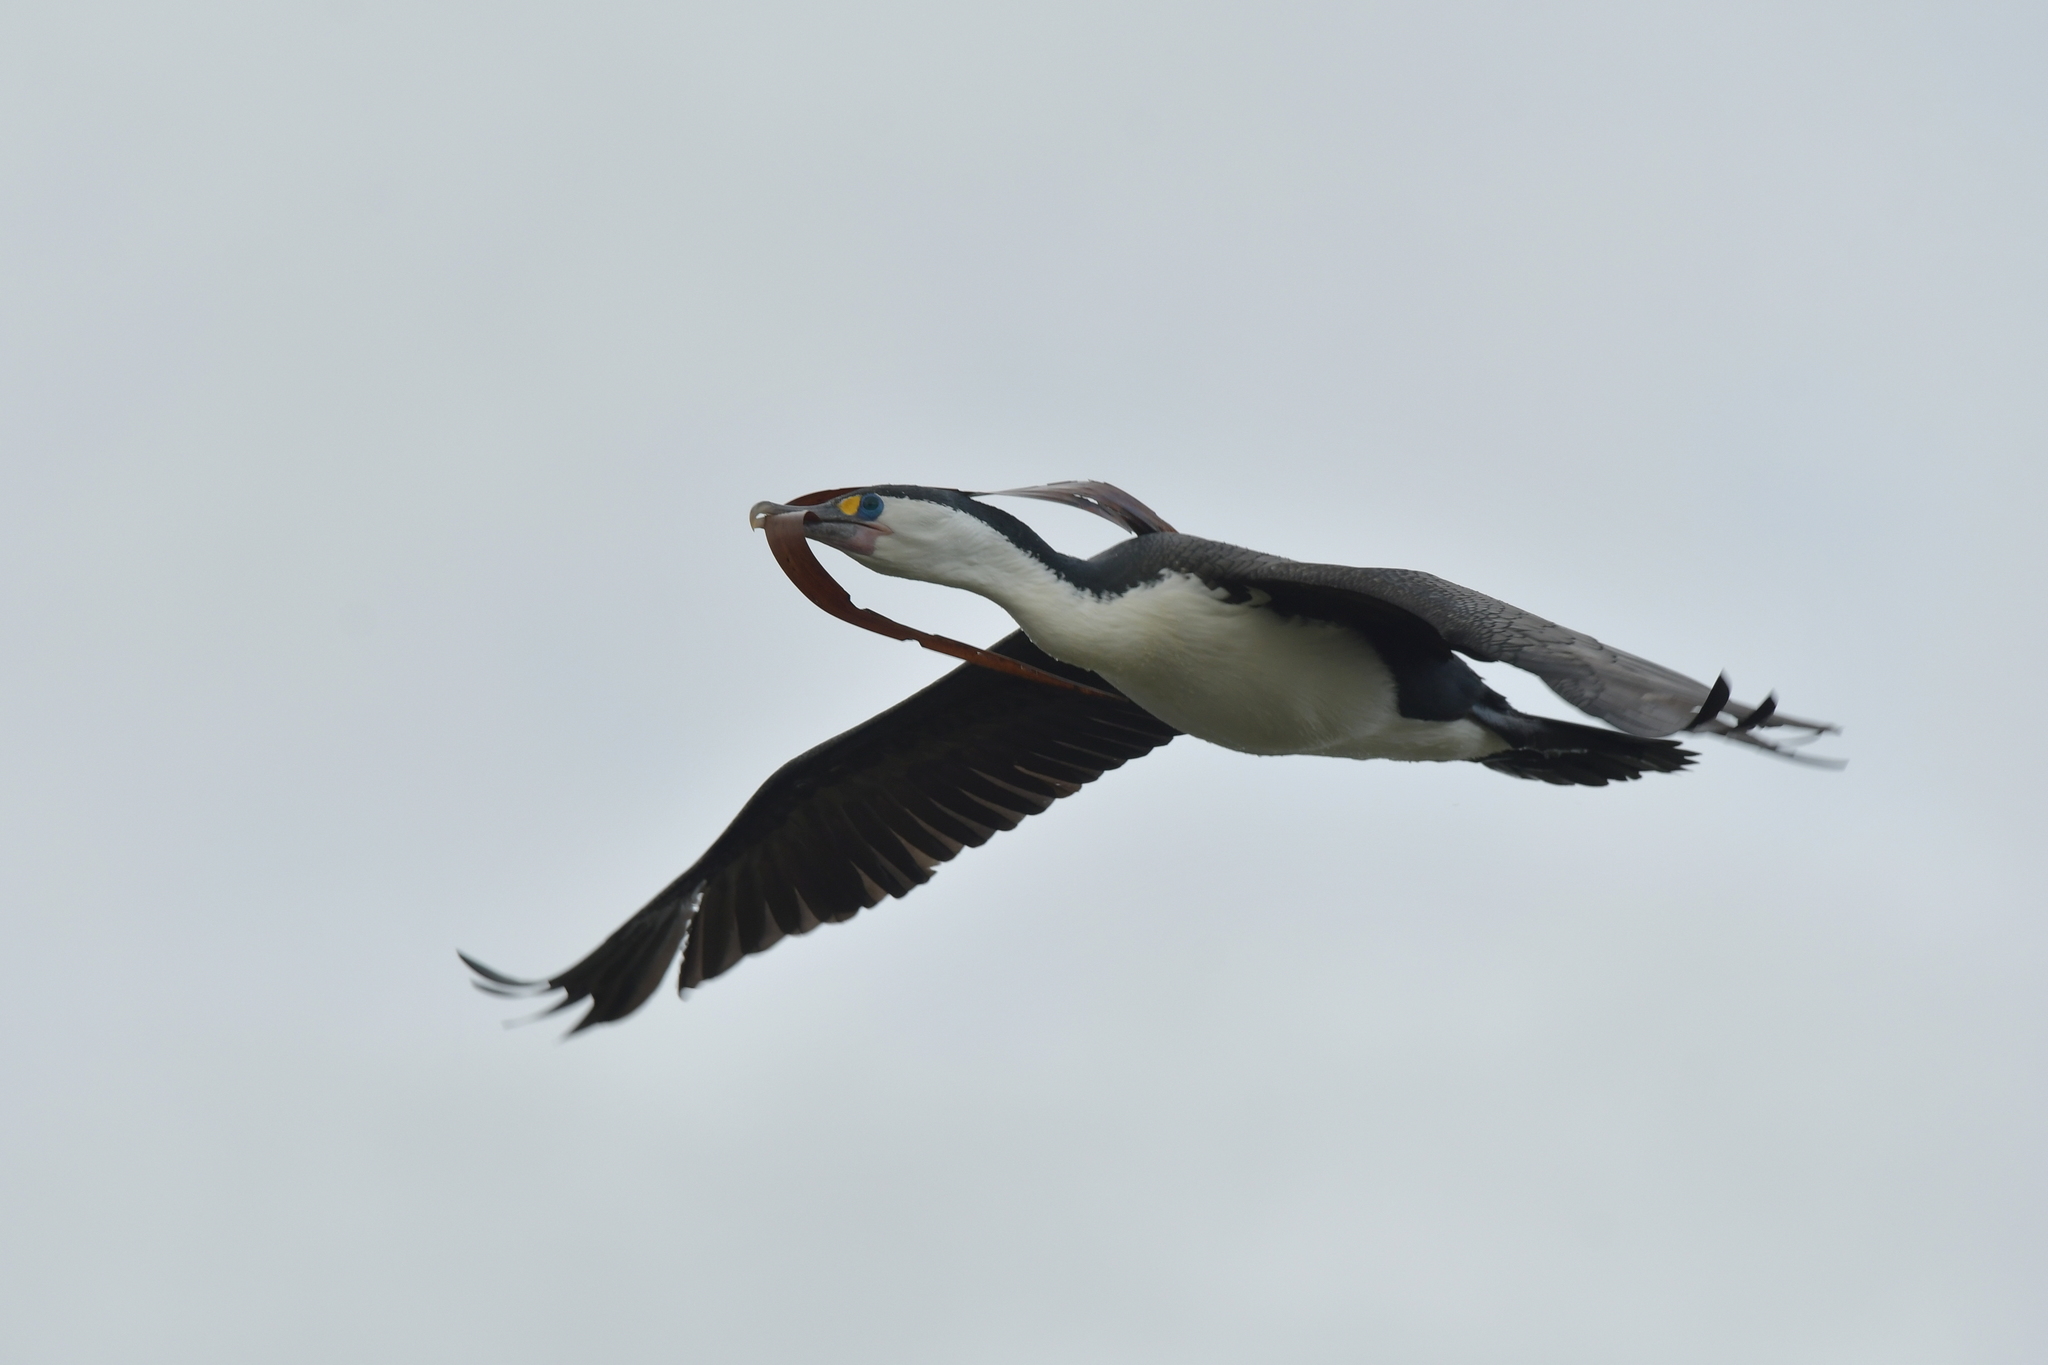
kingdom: Animalia
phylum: Chordata
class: Aves
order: Suliformes
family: Phalacrocoracidae
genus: Phalacrocorax
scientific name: Phalacrocorax varius
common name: Pied cormorant
